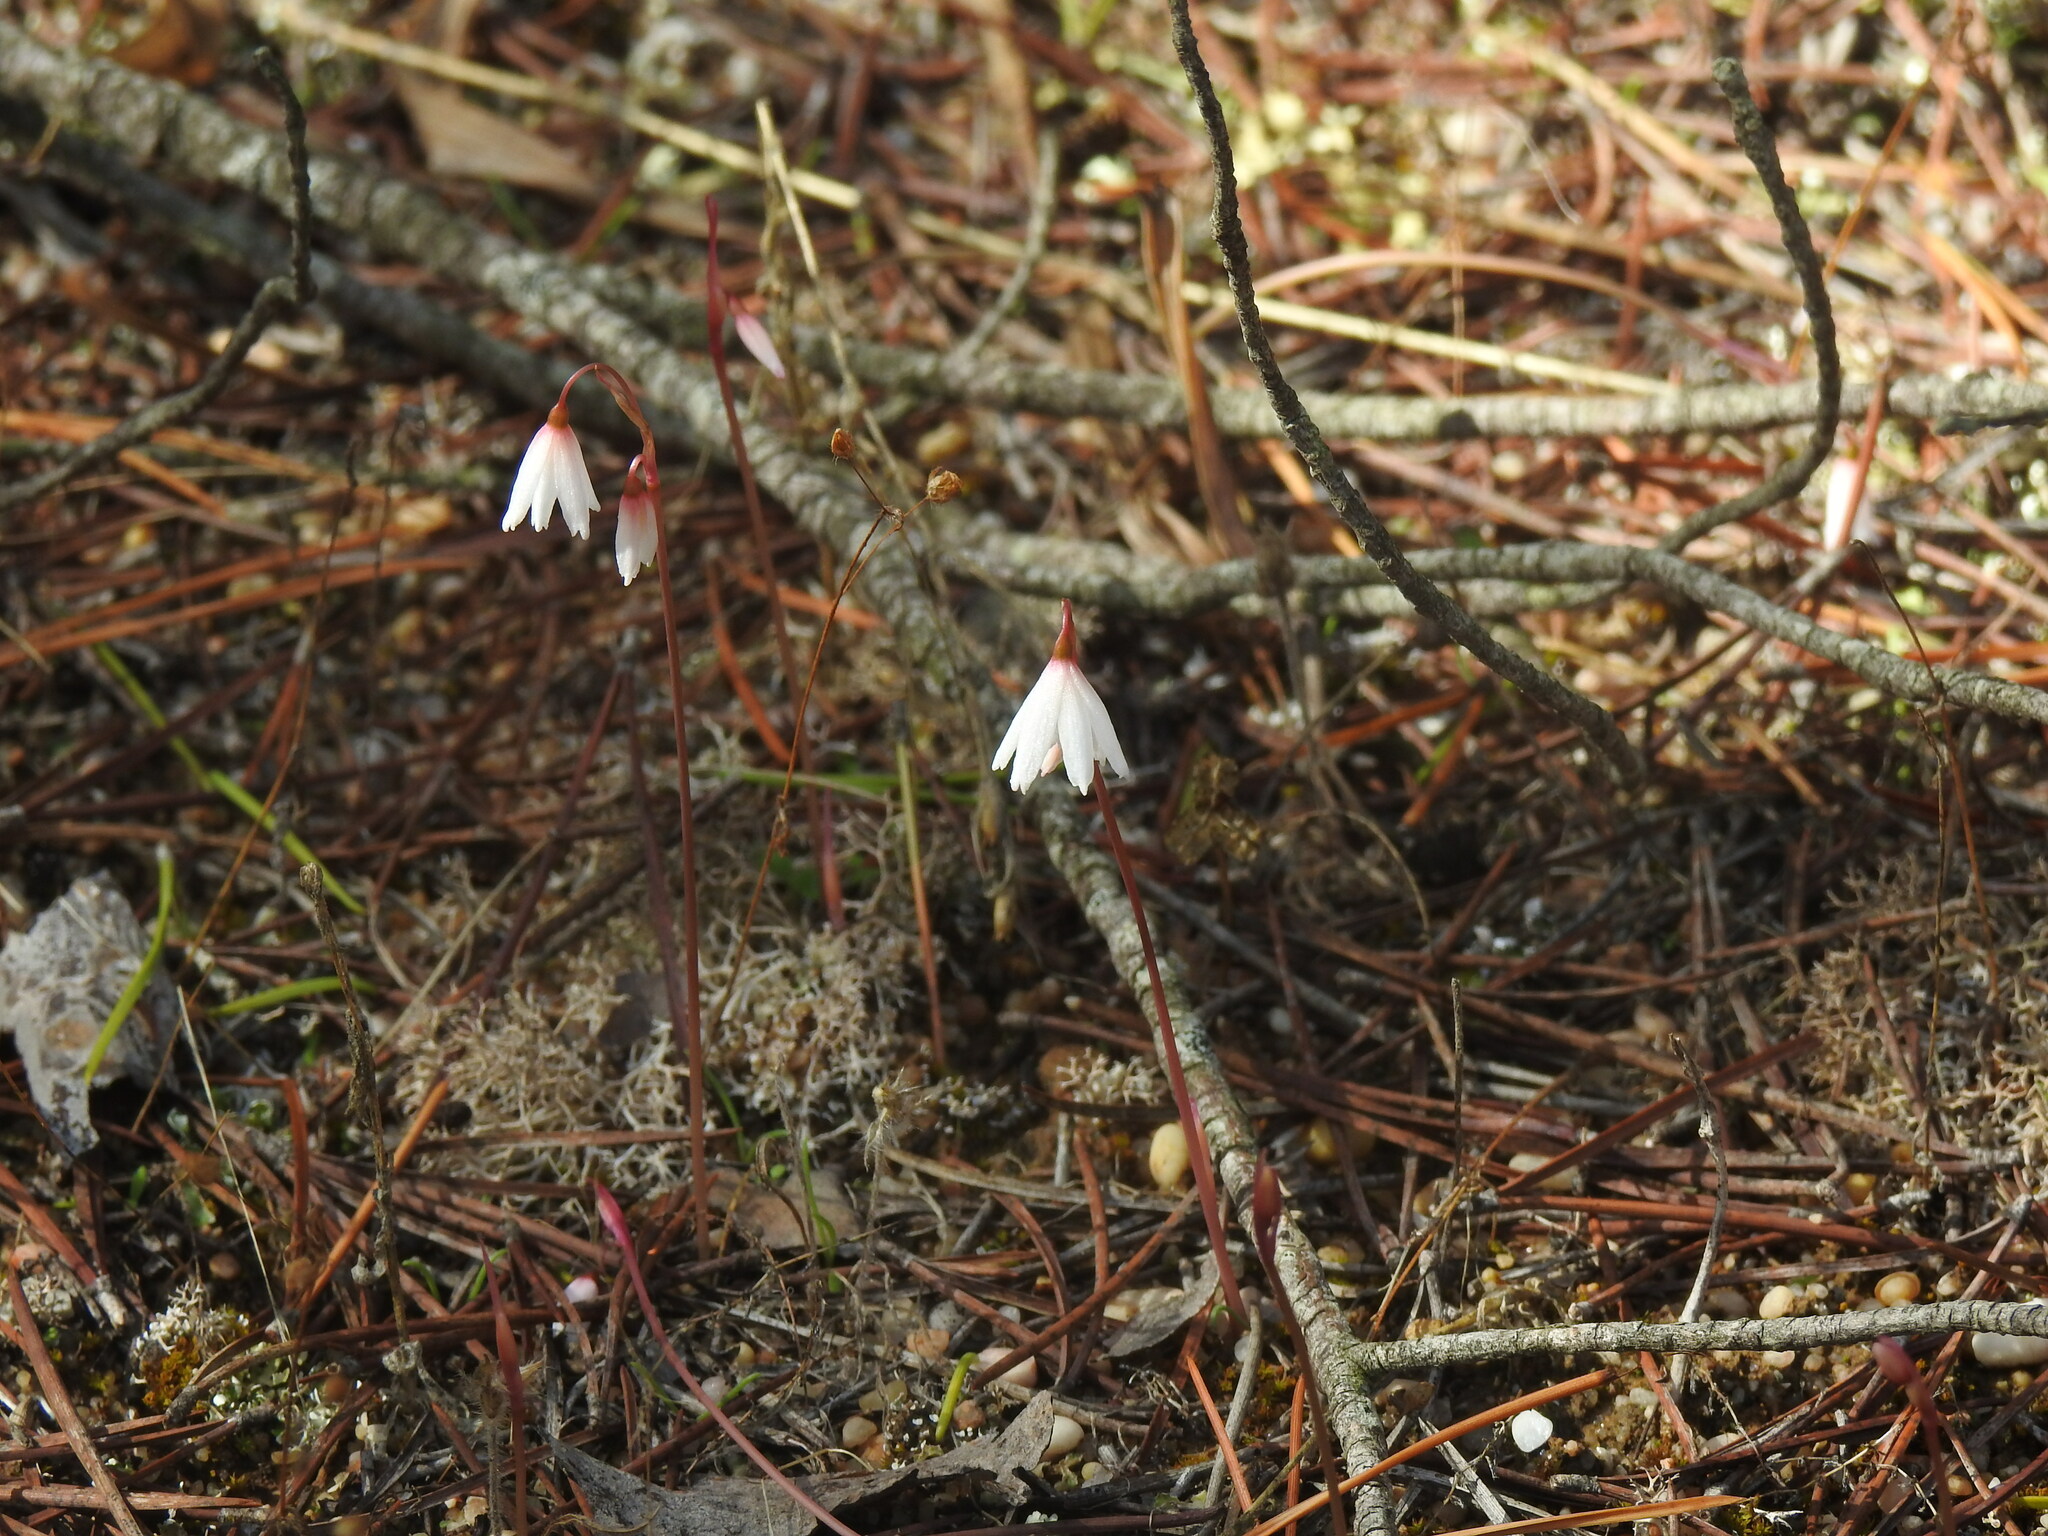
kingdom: Plantae
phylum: Tracheophyta
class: Liliopsida
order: Asparagales
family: Amaryllidaceae
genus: Acis
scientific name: Acis autumnalis
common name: Autumn snowflake
